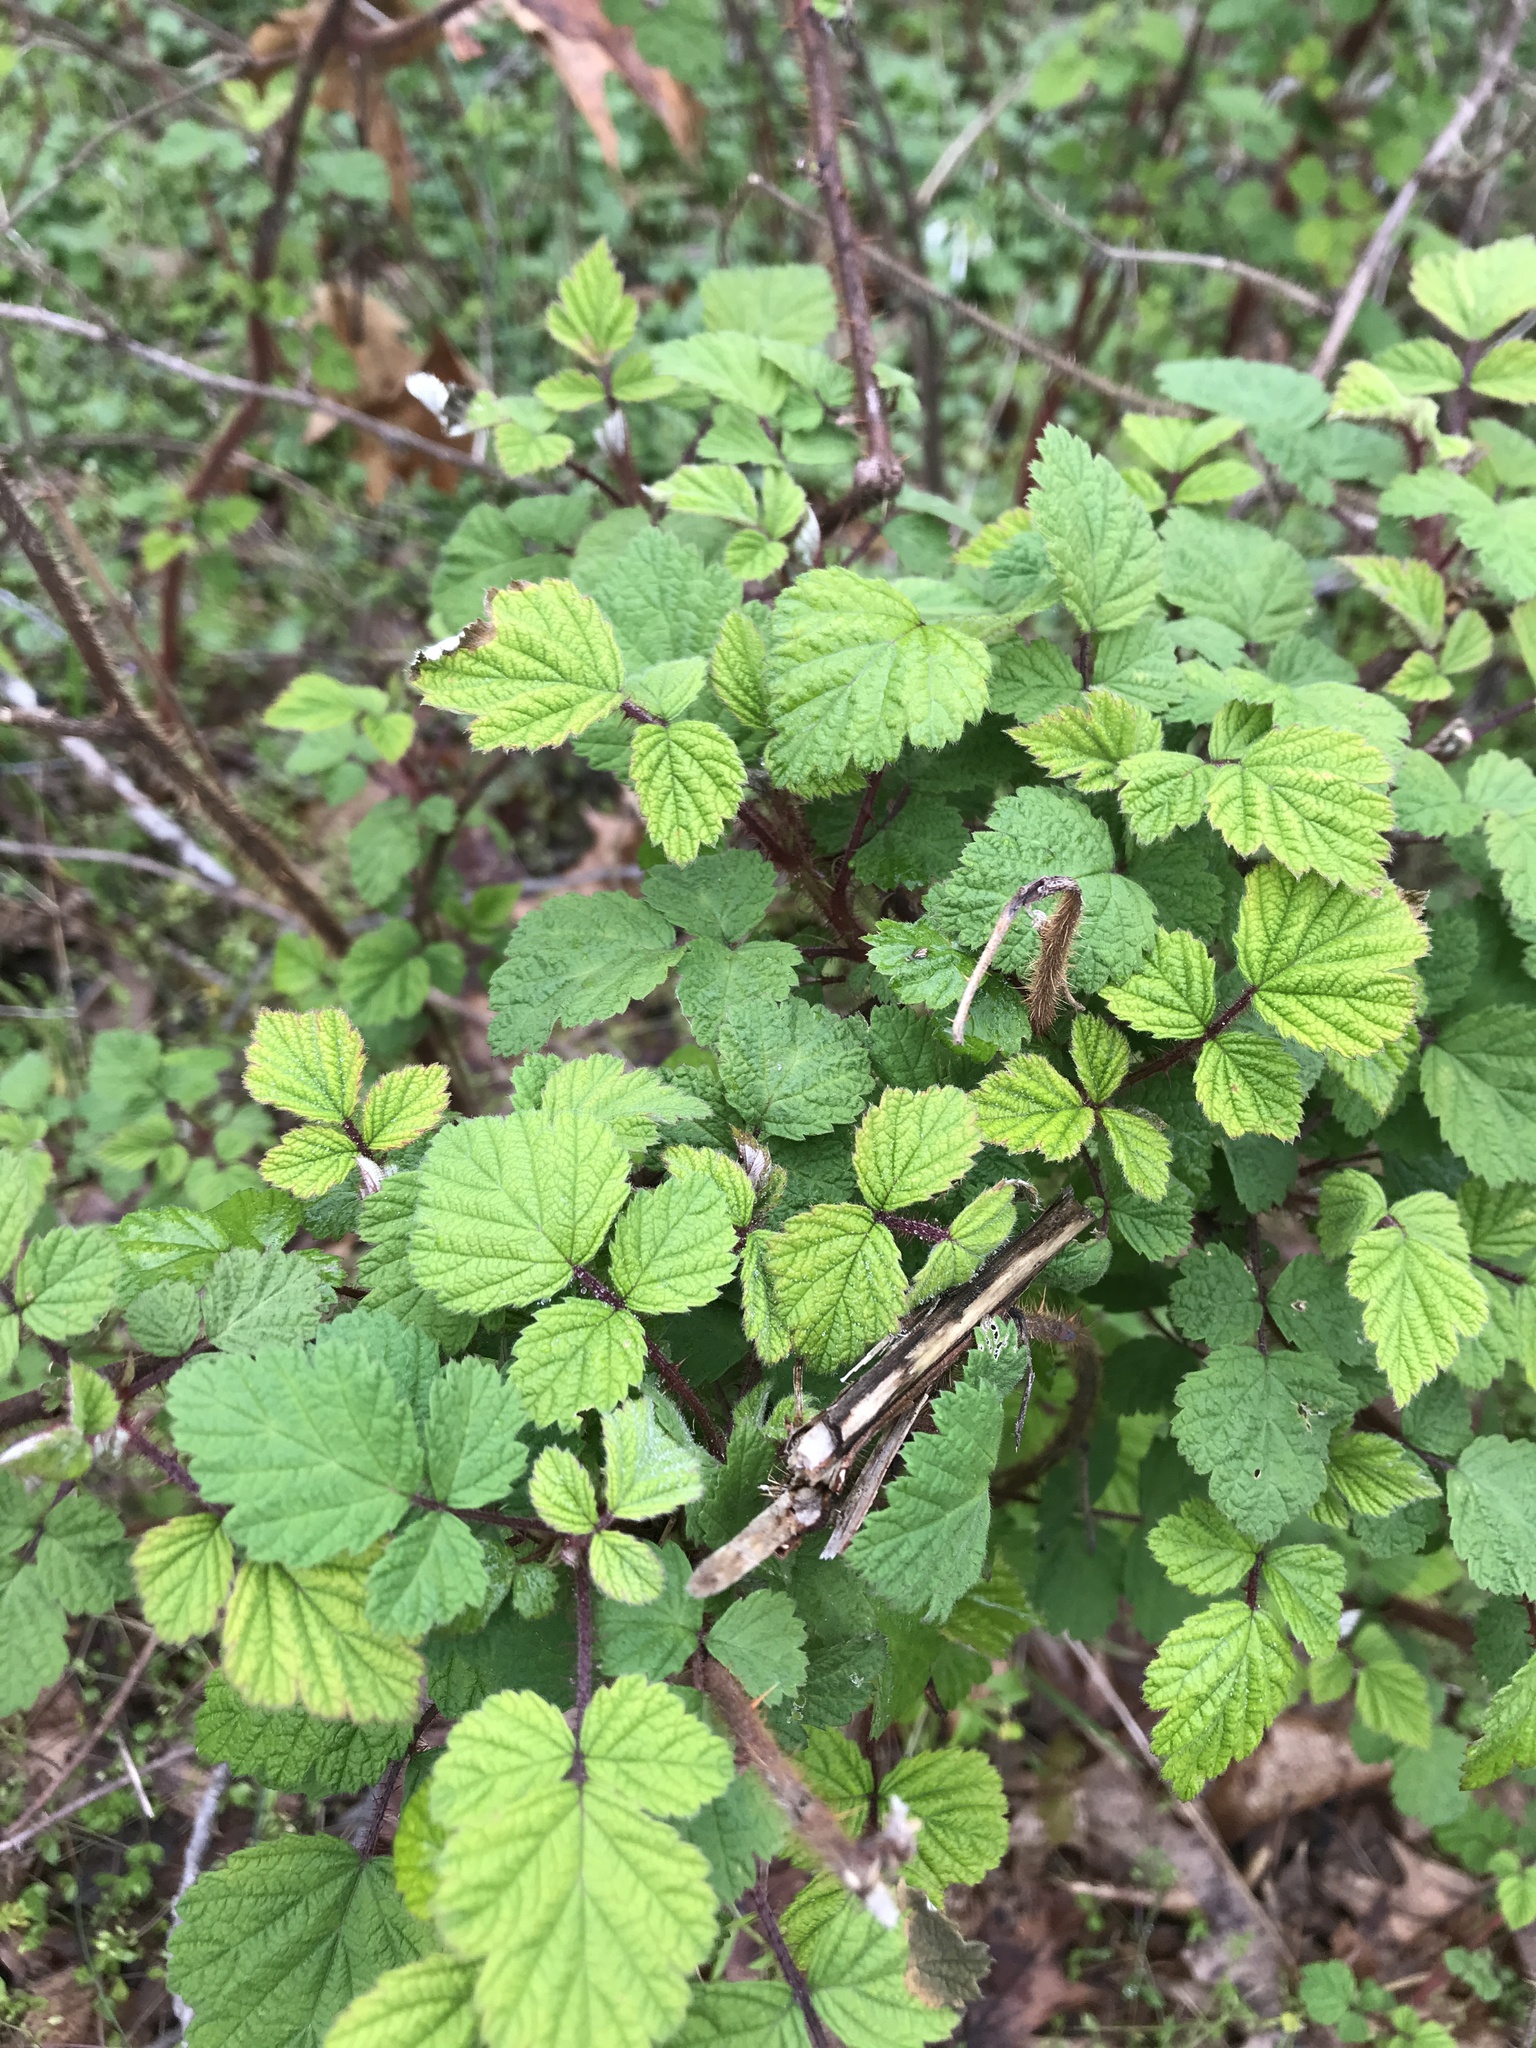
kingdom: Plantae
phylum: Tracheophyta
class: Magnoliopsida
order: Rosales
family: Rosaceae
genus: Rubus
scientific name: Rubus phoenicolasius
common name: Japanese wineberry
